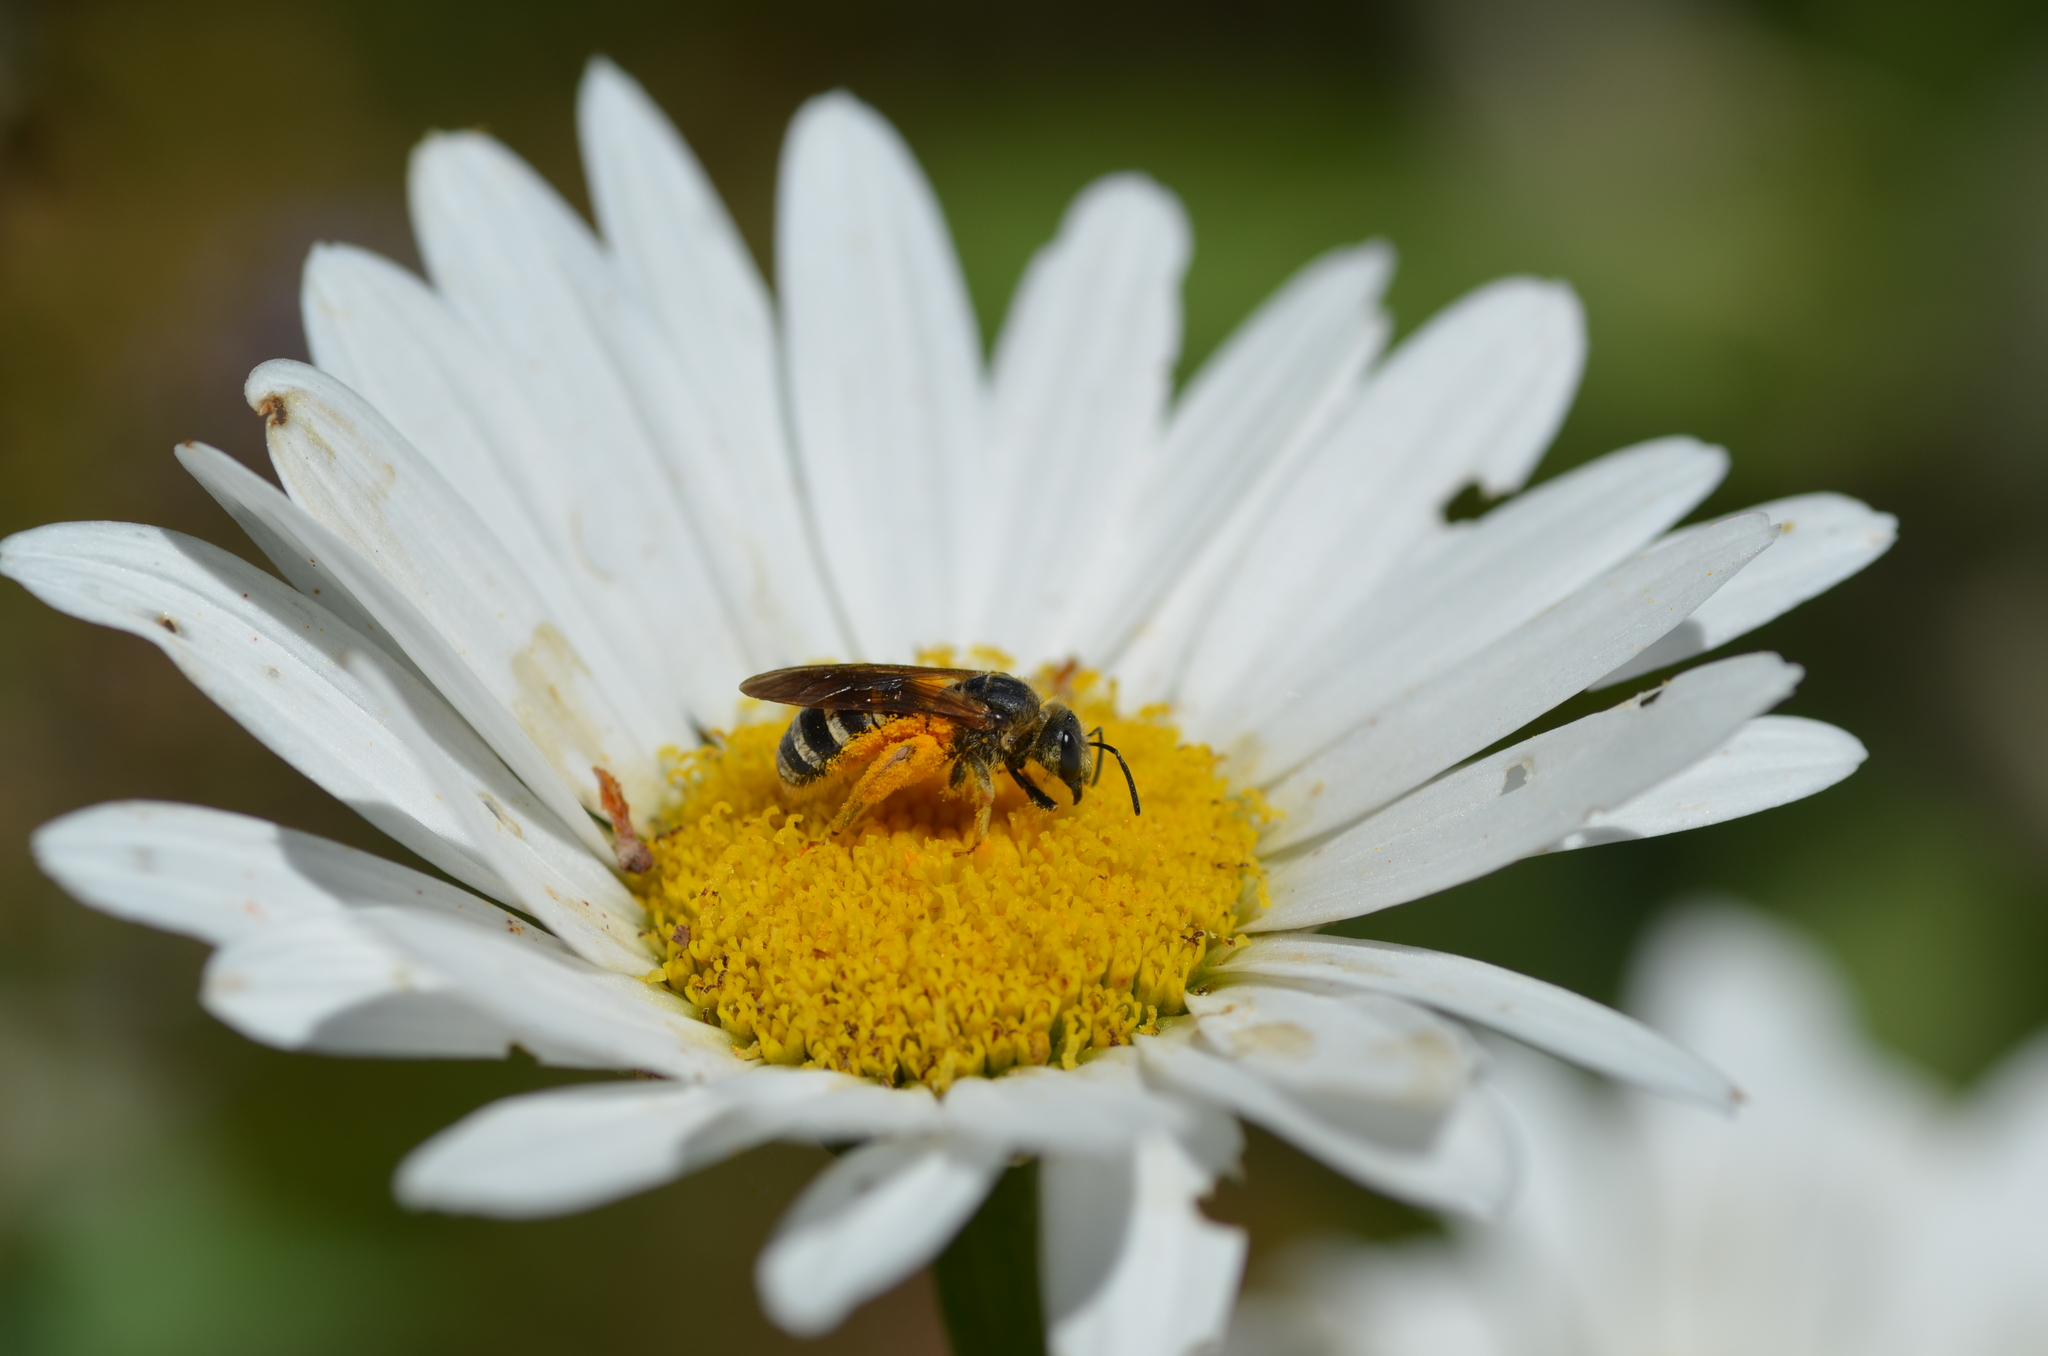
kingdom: Animalia
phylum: Arthropoda
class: Insecta
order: Hymenoptera
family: Halictidae
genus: Halictus
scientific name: Halictus farinosus
